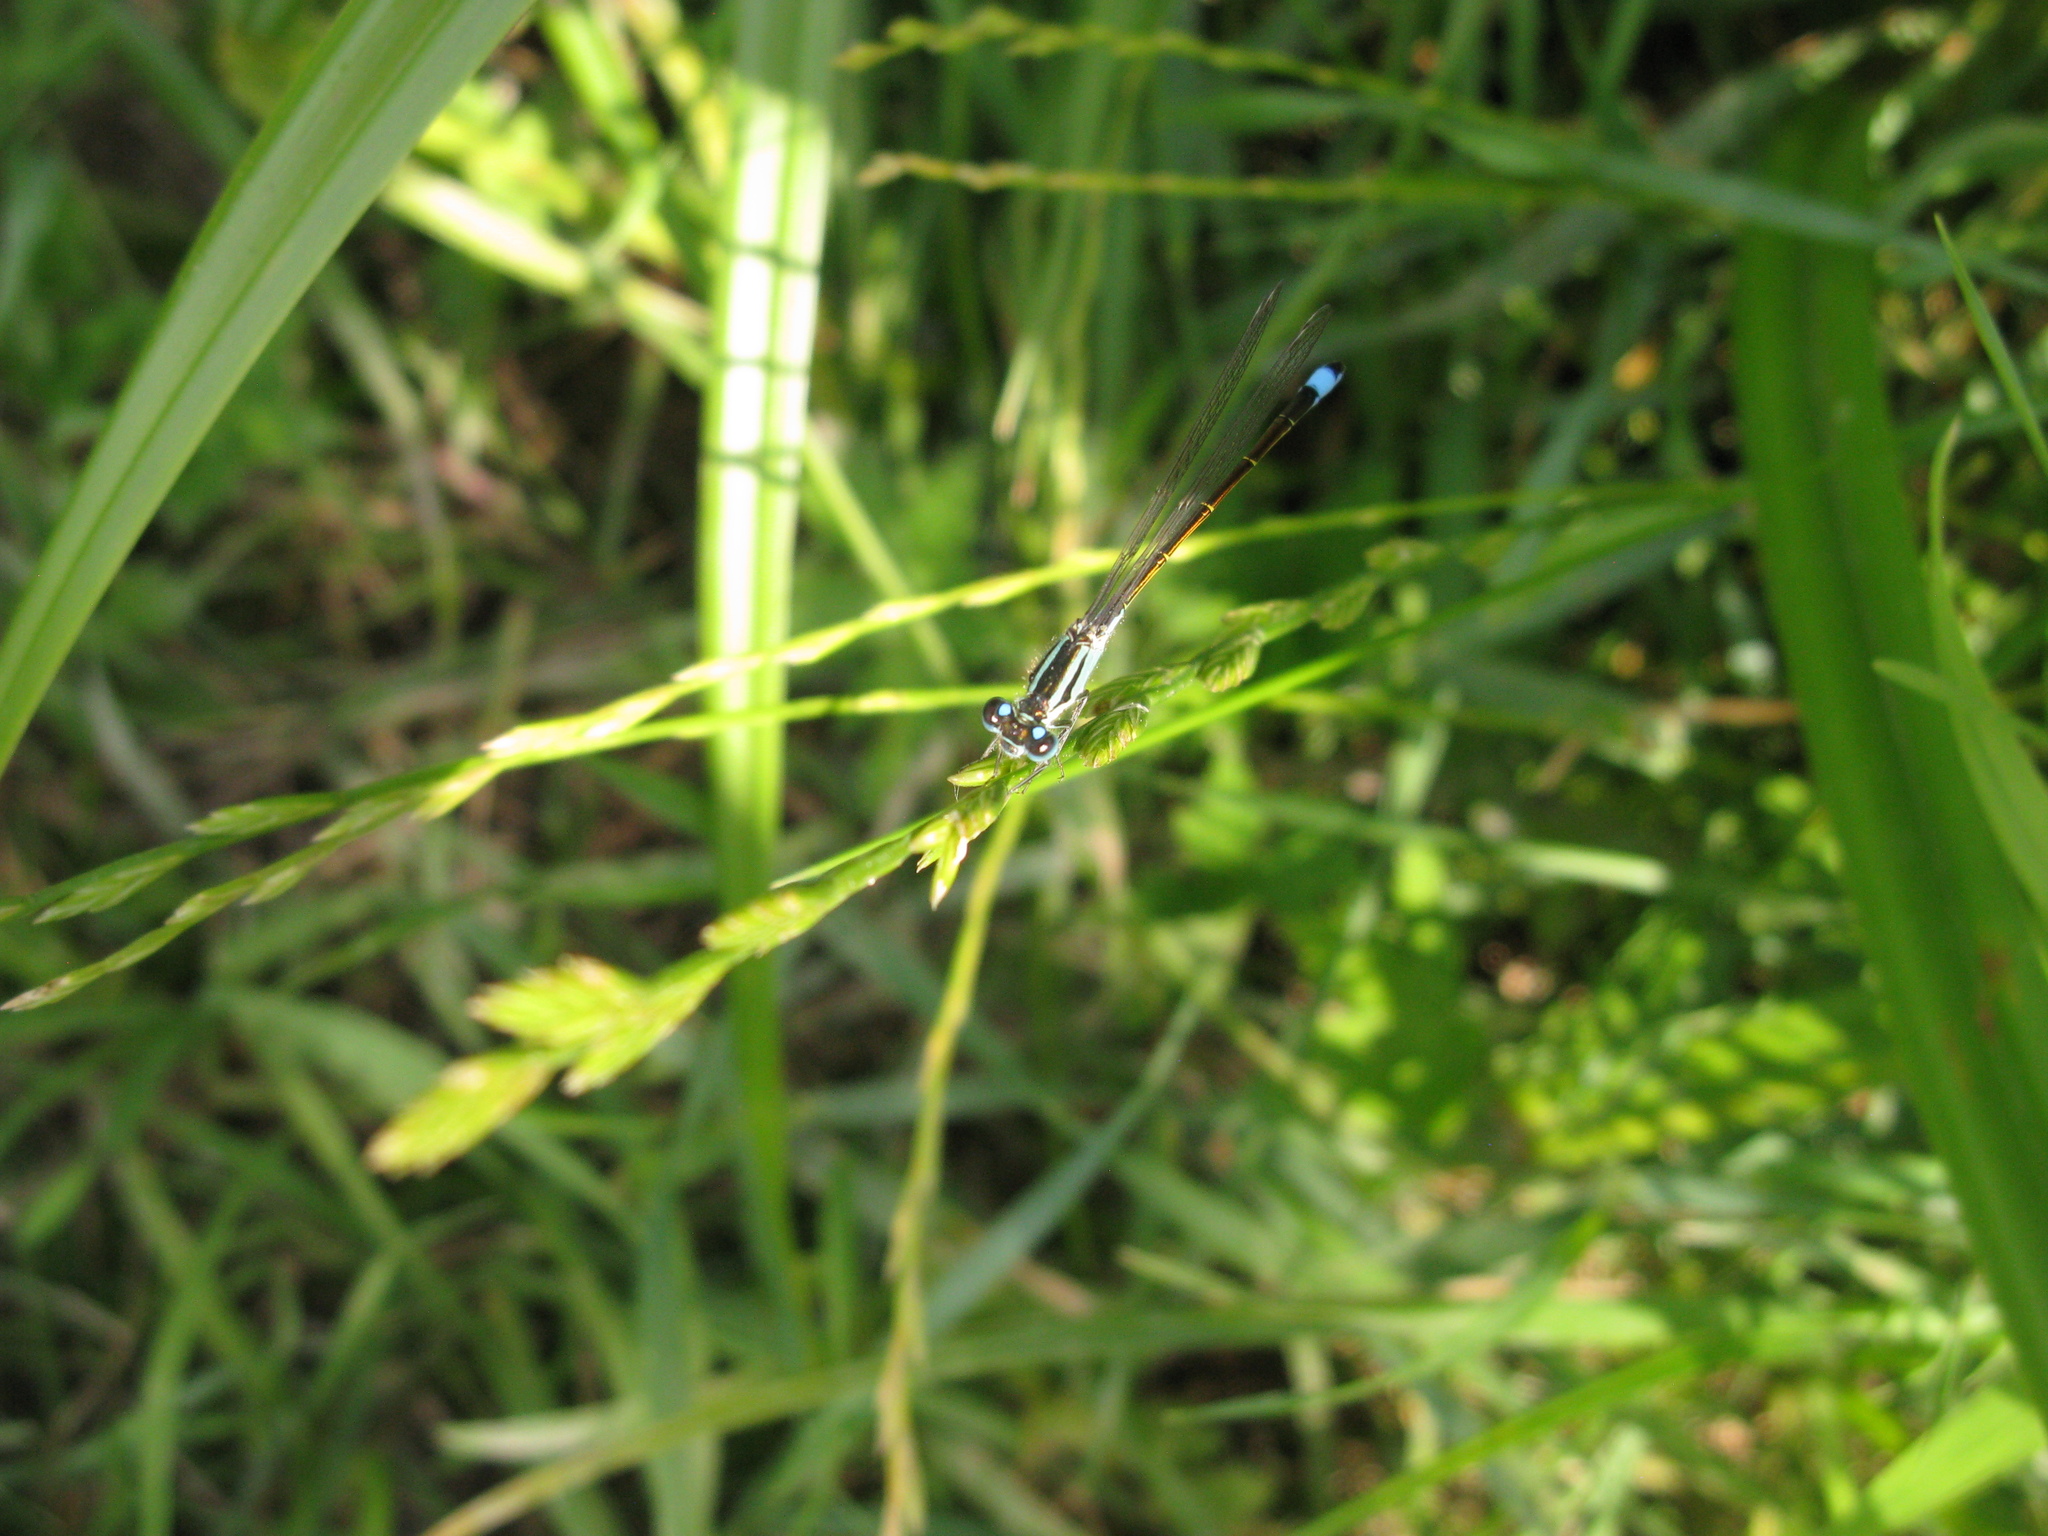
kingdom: Animalia
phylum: Arthropoda
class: Insecta
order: Odonata
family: Coenagrionidae
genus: Ischnura
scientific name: Ischnura elegans
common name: Blue-tailed damselfly
